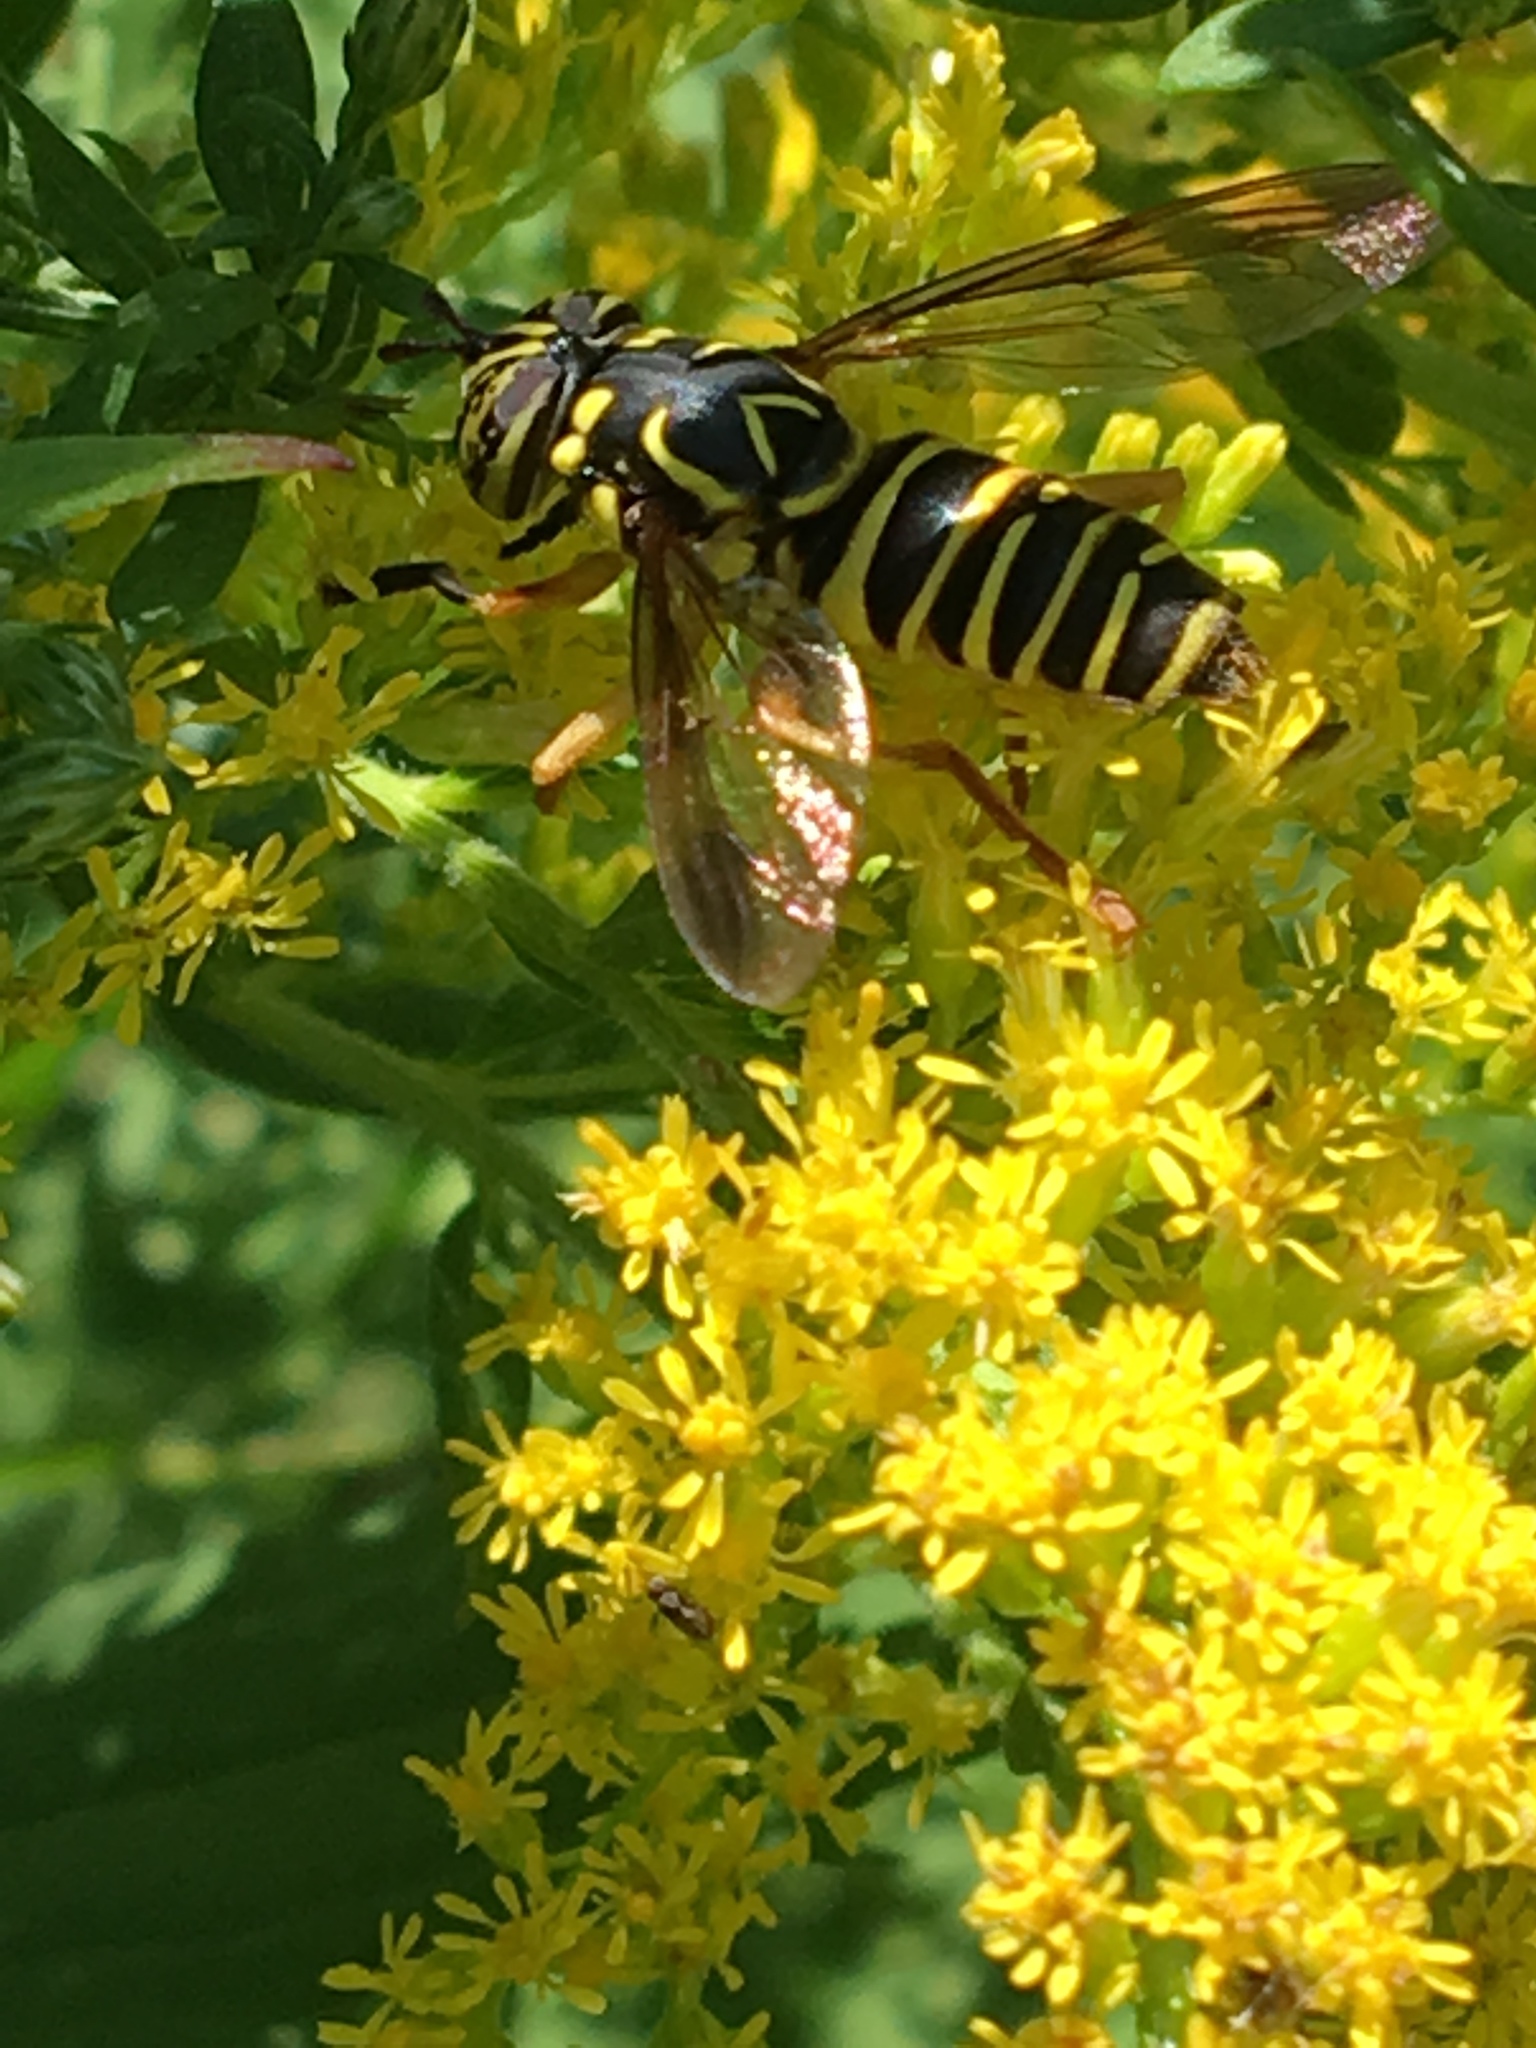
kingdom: Animalia
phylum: Arthropoda
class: Insecta
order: Diptera
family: Syrphidae
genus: Spilomyia
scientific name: Spilomyia longicornis
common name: Eastern hornet fly
